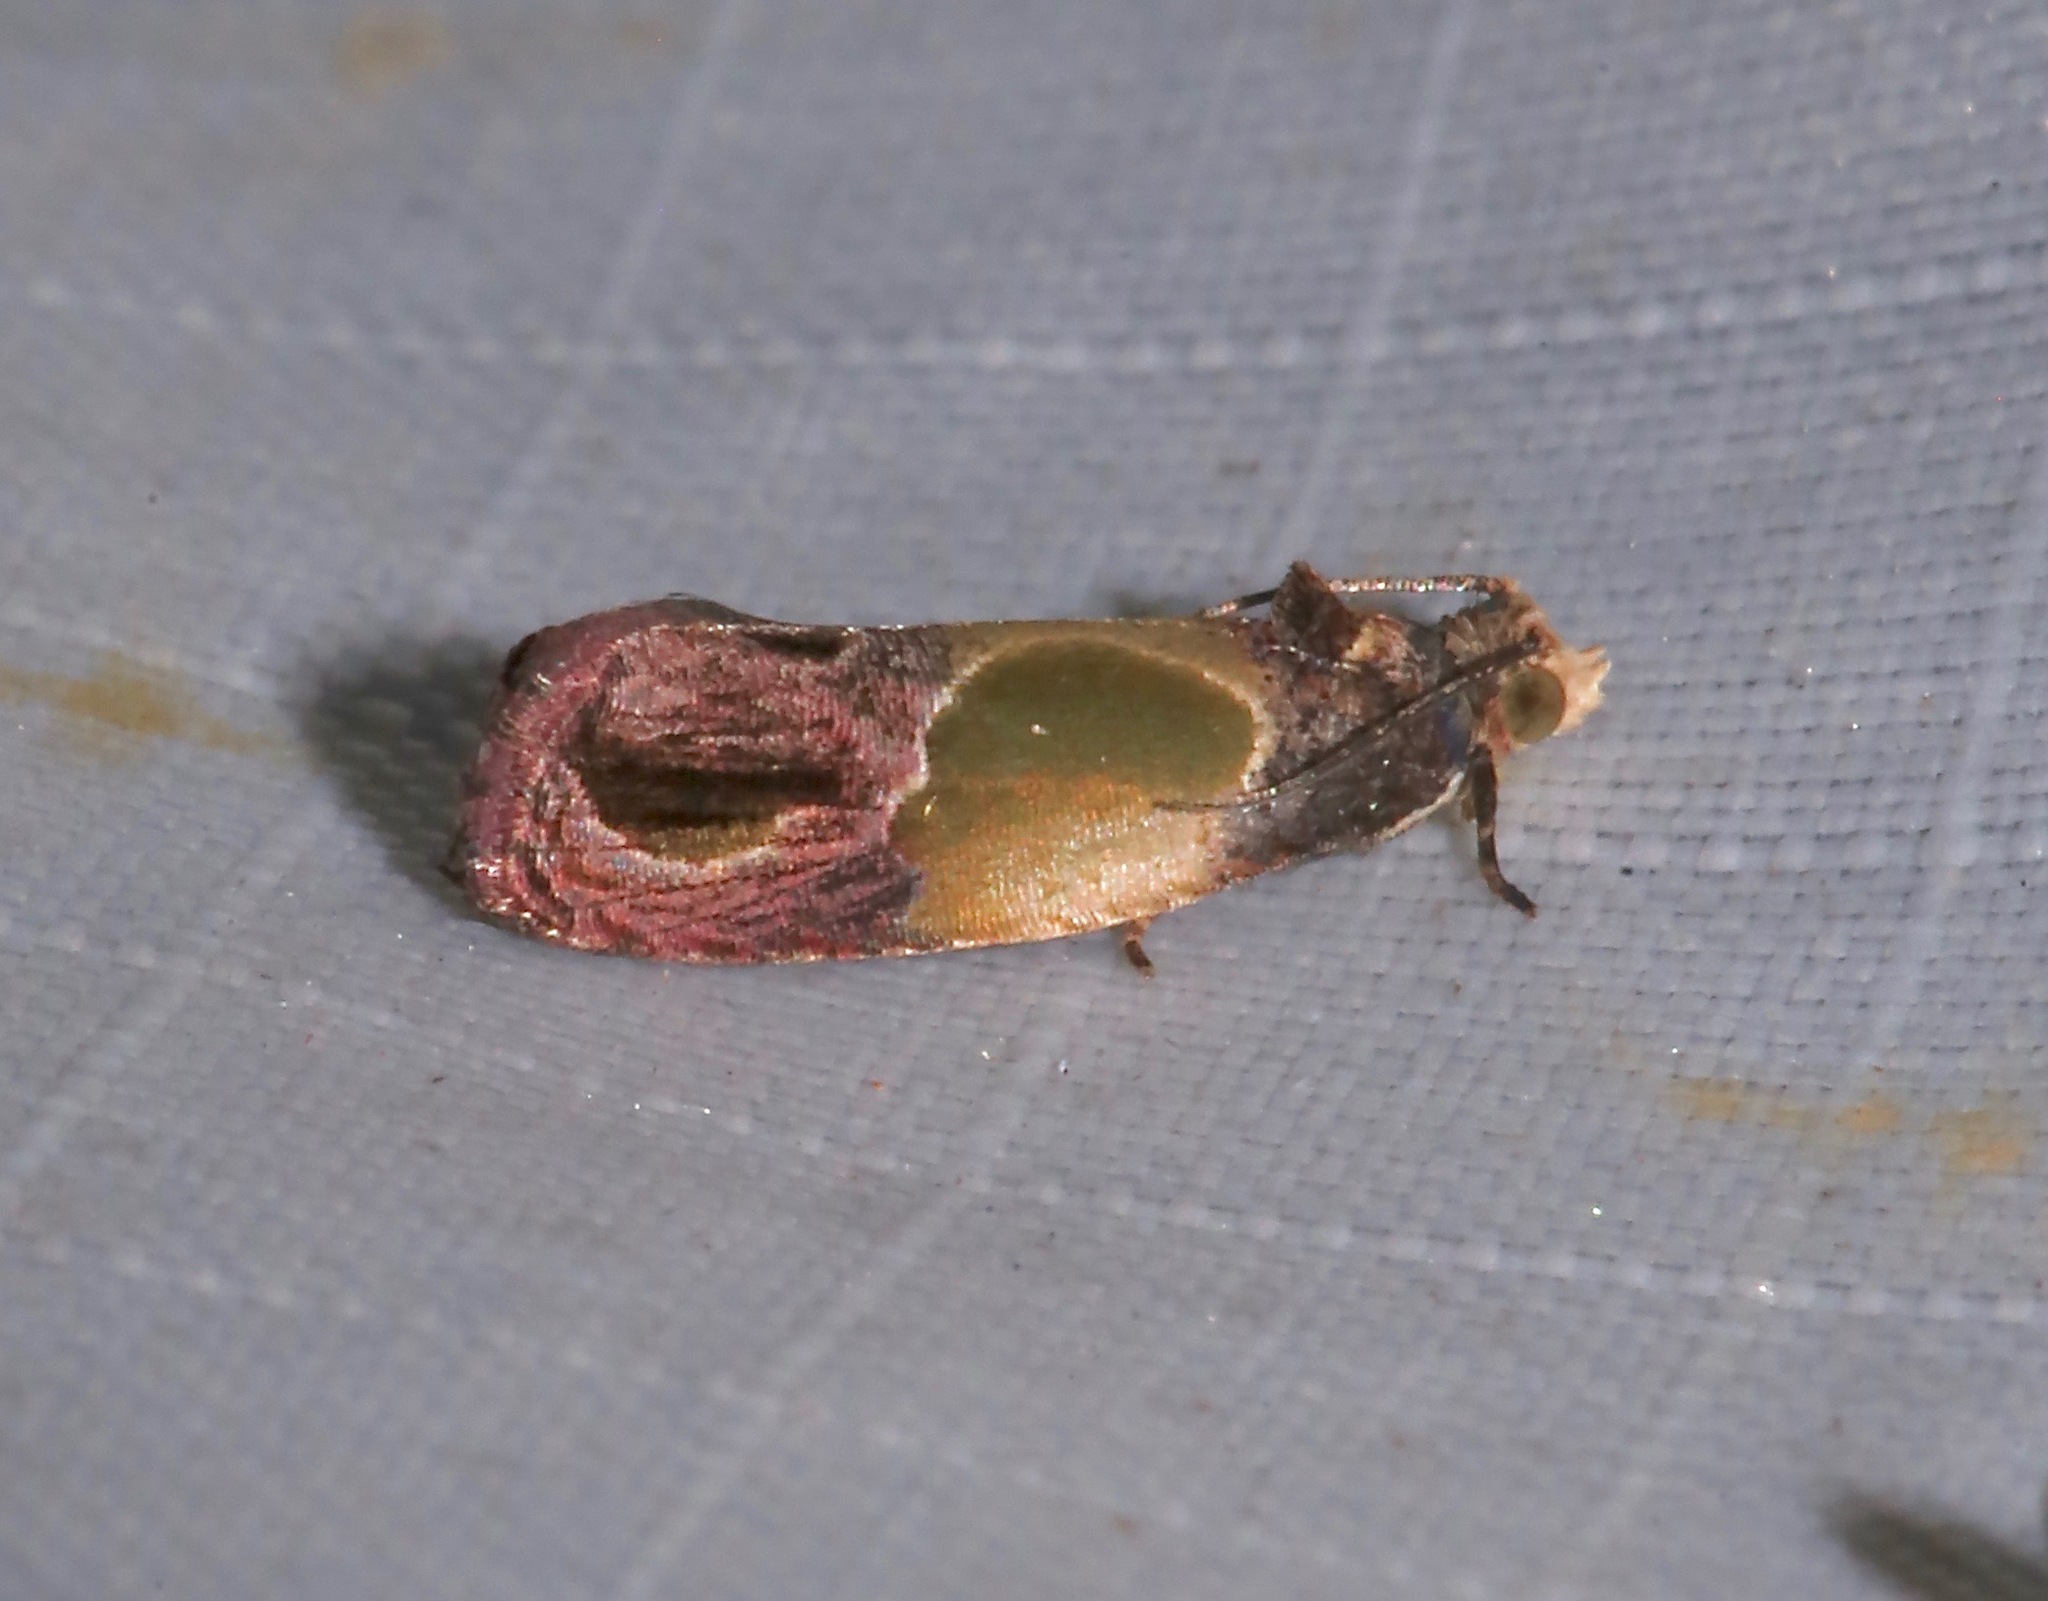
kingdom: Animalia
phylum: Arthropoda
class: Insecta
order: Lepidoptera
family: Tortricidae
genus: Eumarozia
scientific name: Eumarozia malachitana
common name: Sculptured moth
